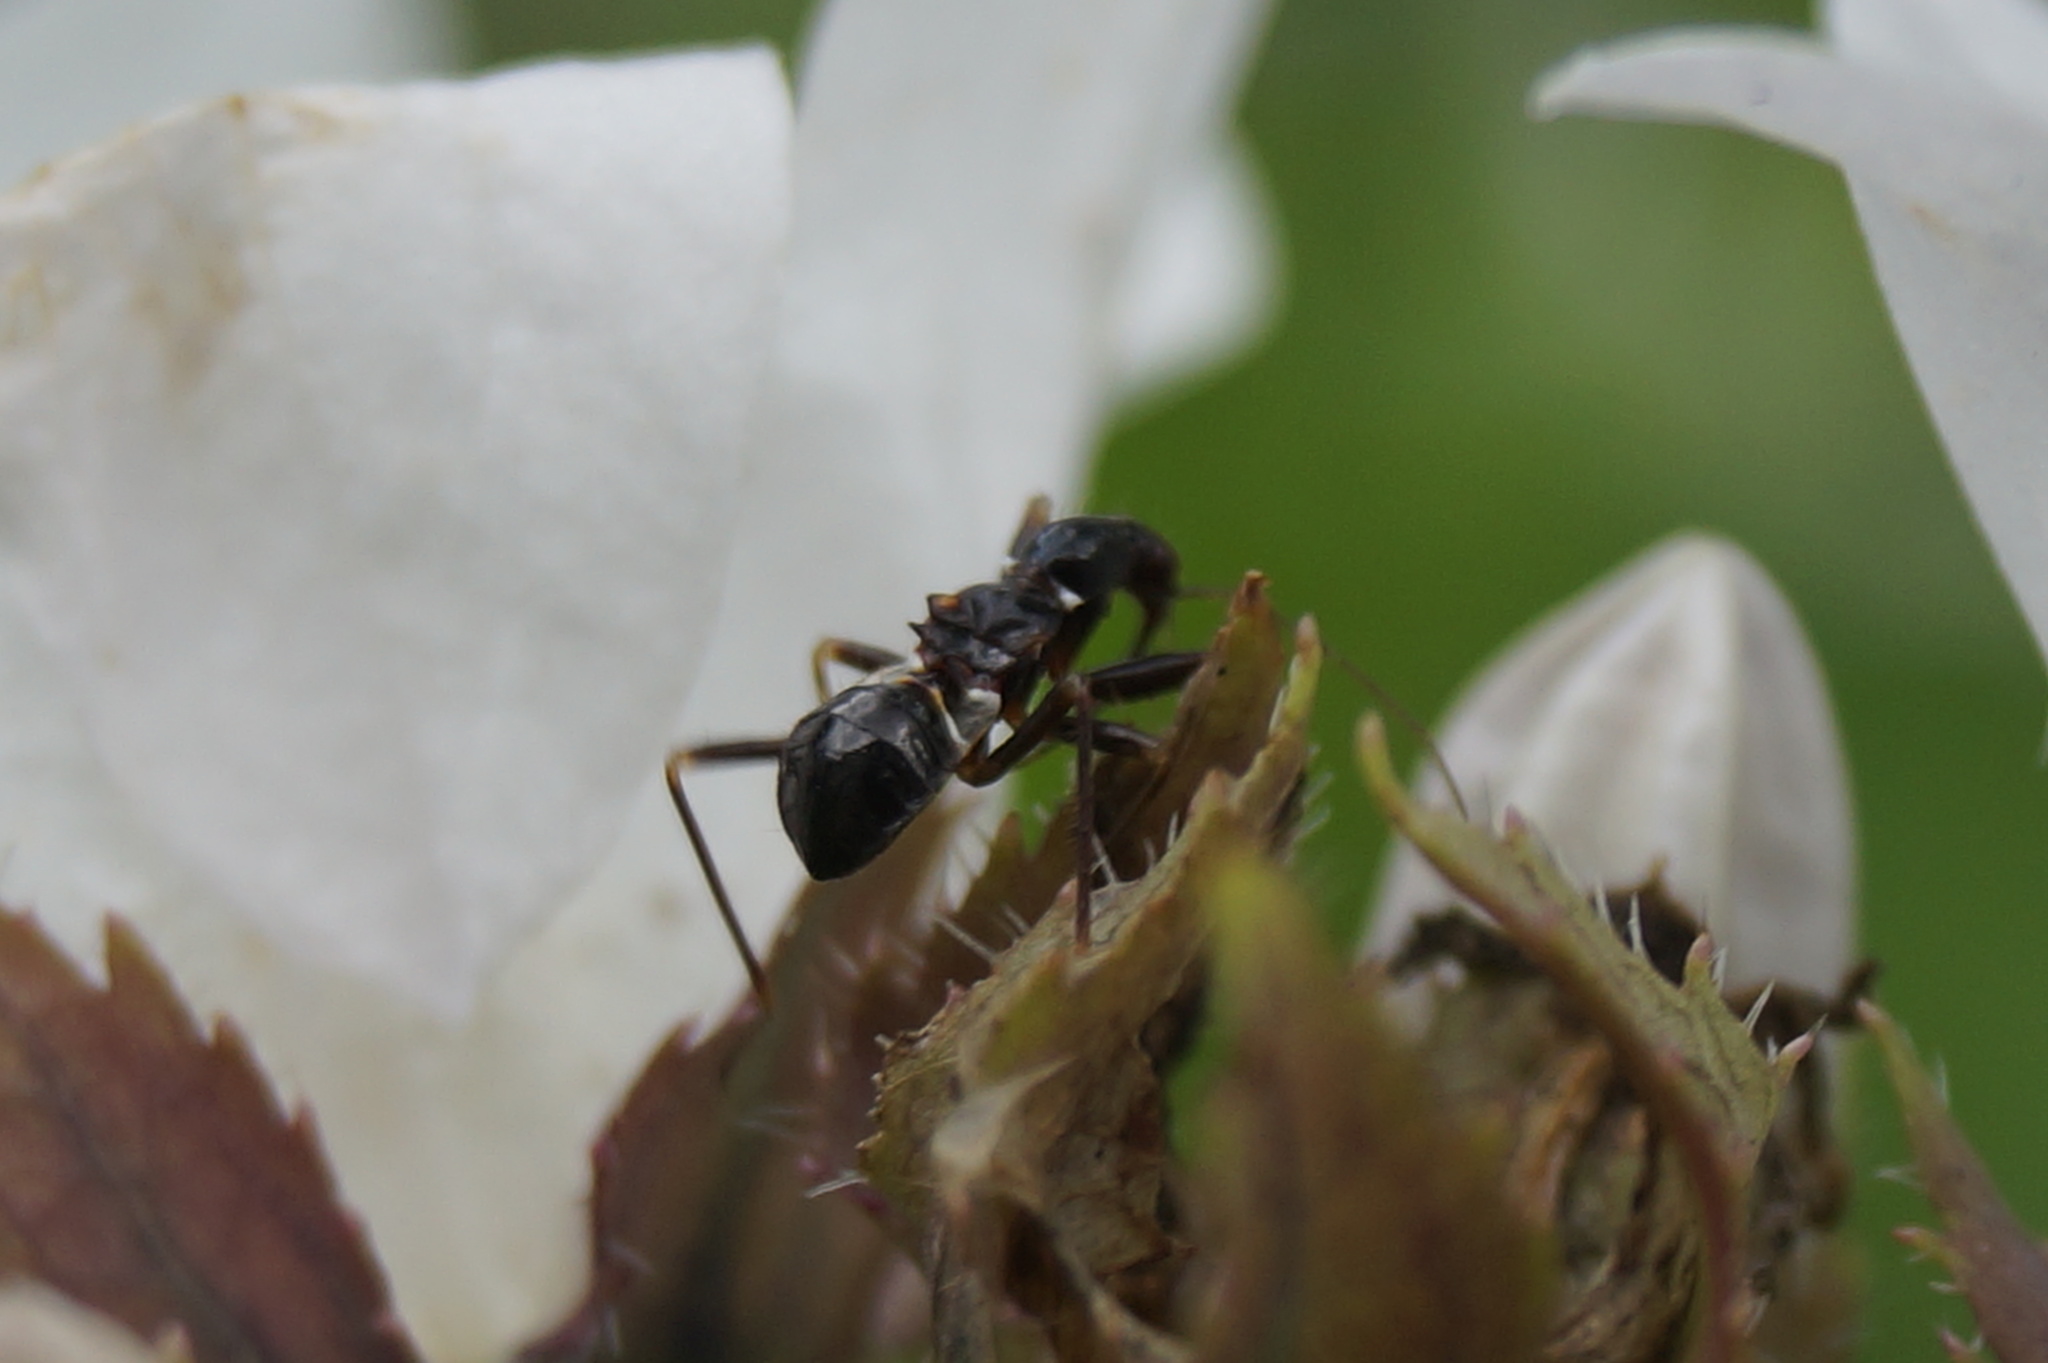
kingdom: Animalia
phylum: Arthropoda
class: Insecta
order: Hemiptera
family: Nabidae
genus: Himacerus
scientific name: Himacerus mirmicoides
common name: Ant damsel bug
